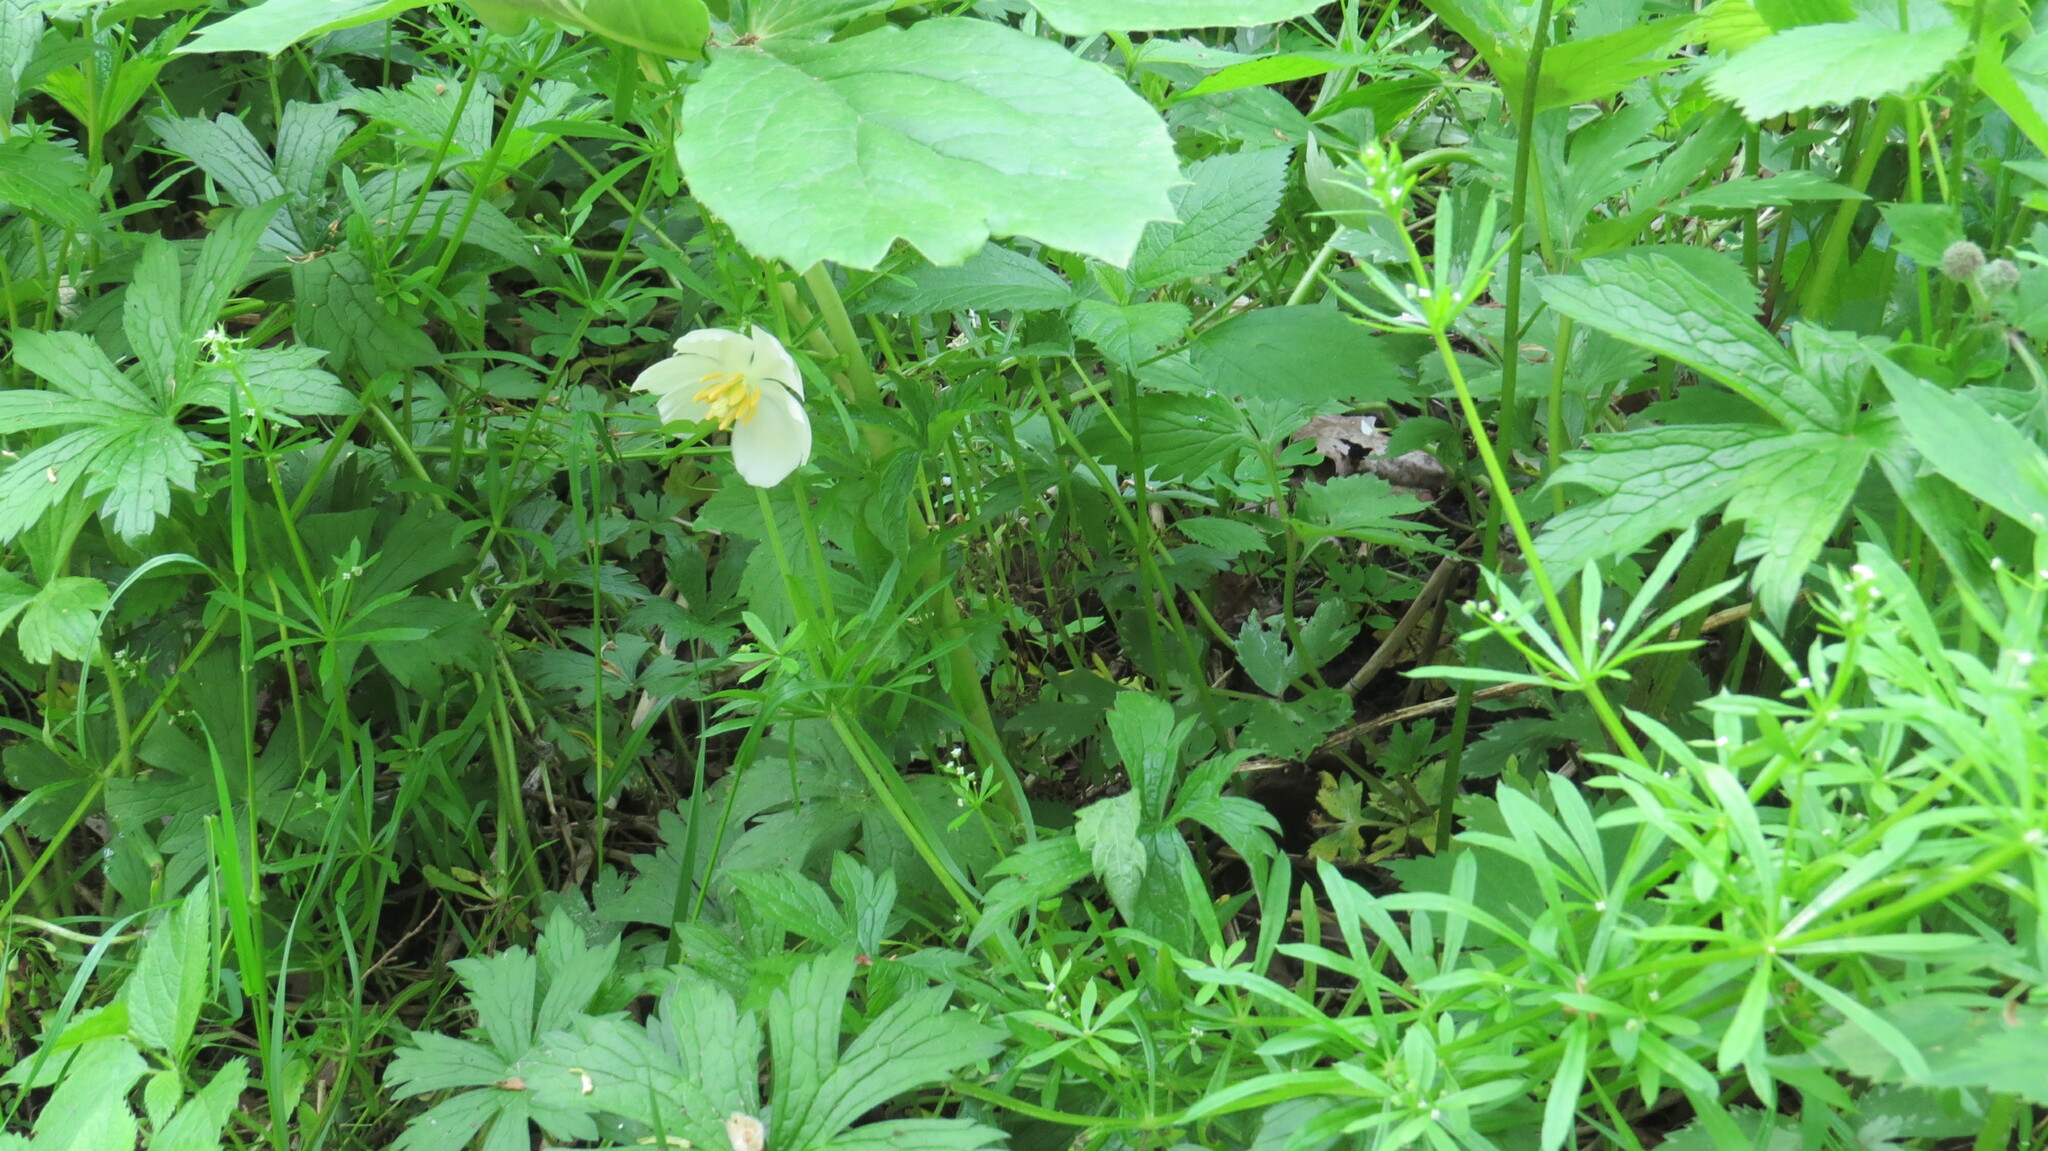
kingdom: Plantae
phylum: Tracheophyta
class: Magnoliopsida
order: Ranunculales
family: Berberidaceae
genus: Podophyllum
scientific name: Podophyllum peltatum
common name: Wild mandrake
